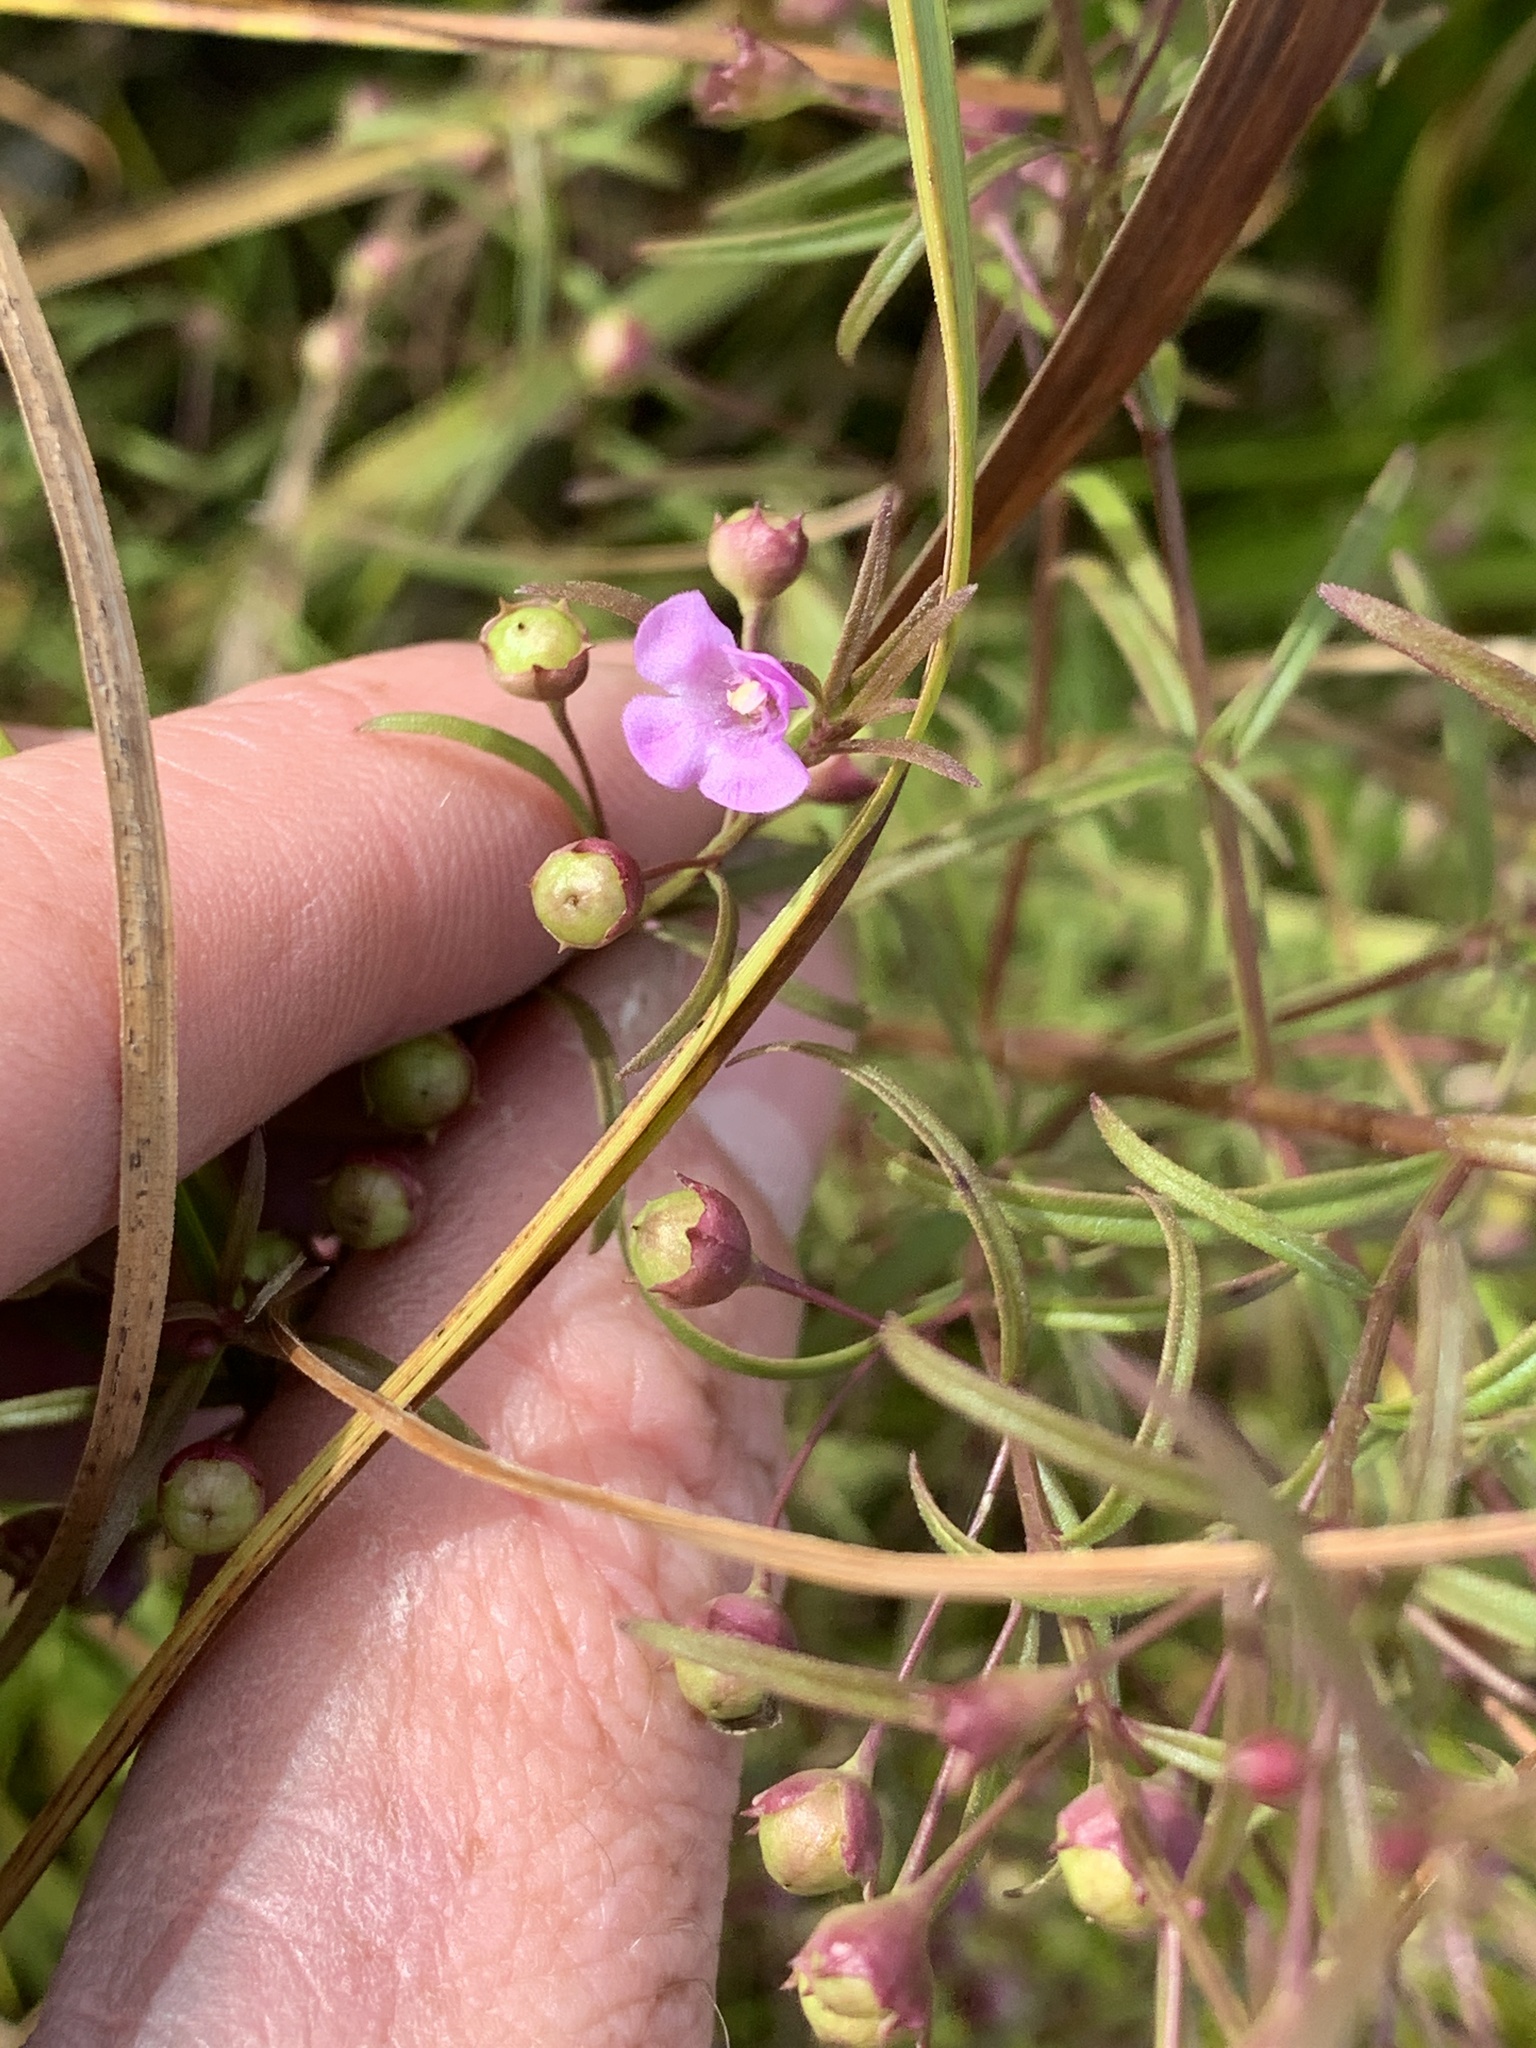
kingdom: Plantae
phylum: Tracheophyta
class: Magnoliopsida
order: Lamiales
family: Orobanchaceae
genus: Agalinis
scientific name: Agalinis tenuifolia
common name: Slender agalinis
